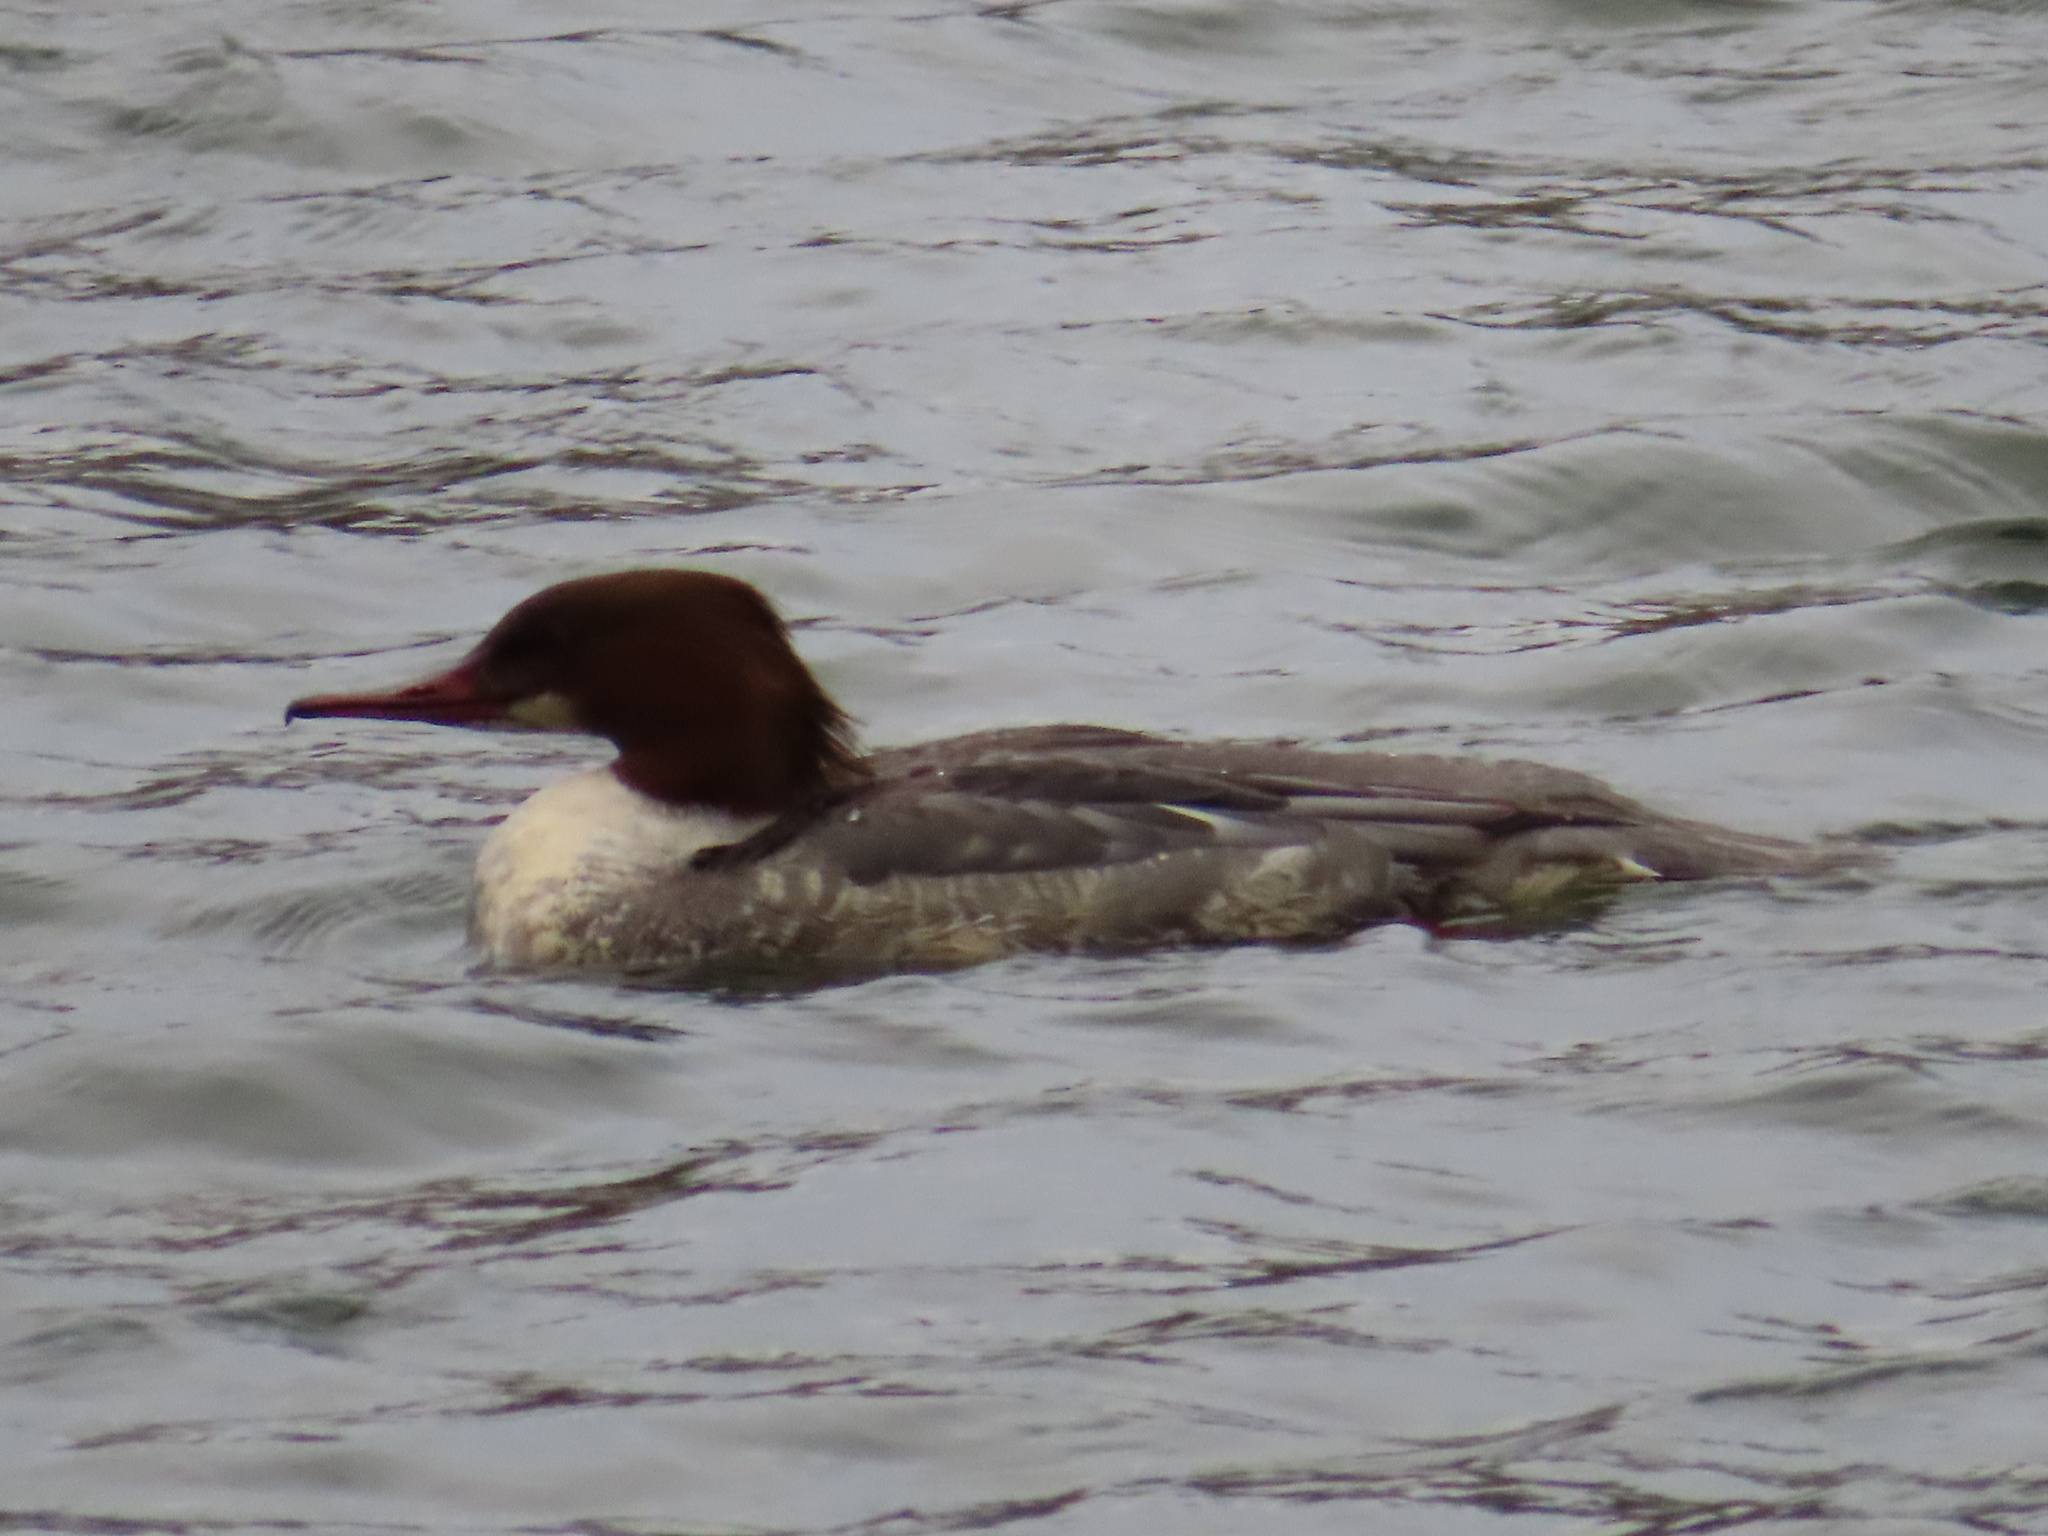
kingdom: Animalia
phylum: Chordata
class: Aves
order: Anseriformes
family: Anatidae
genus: Mergus
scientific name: Mergus merganser
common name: Common merganser
